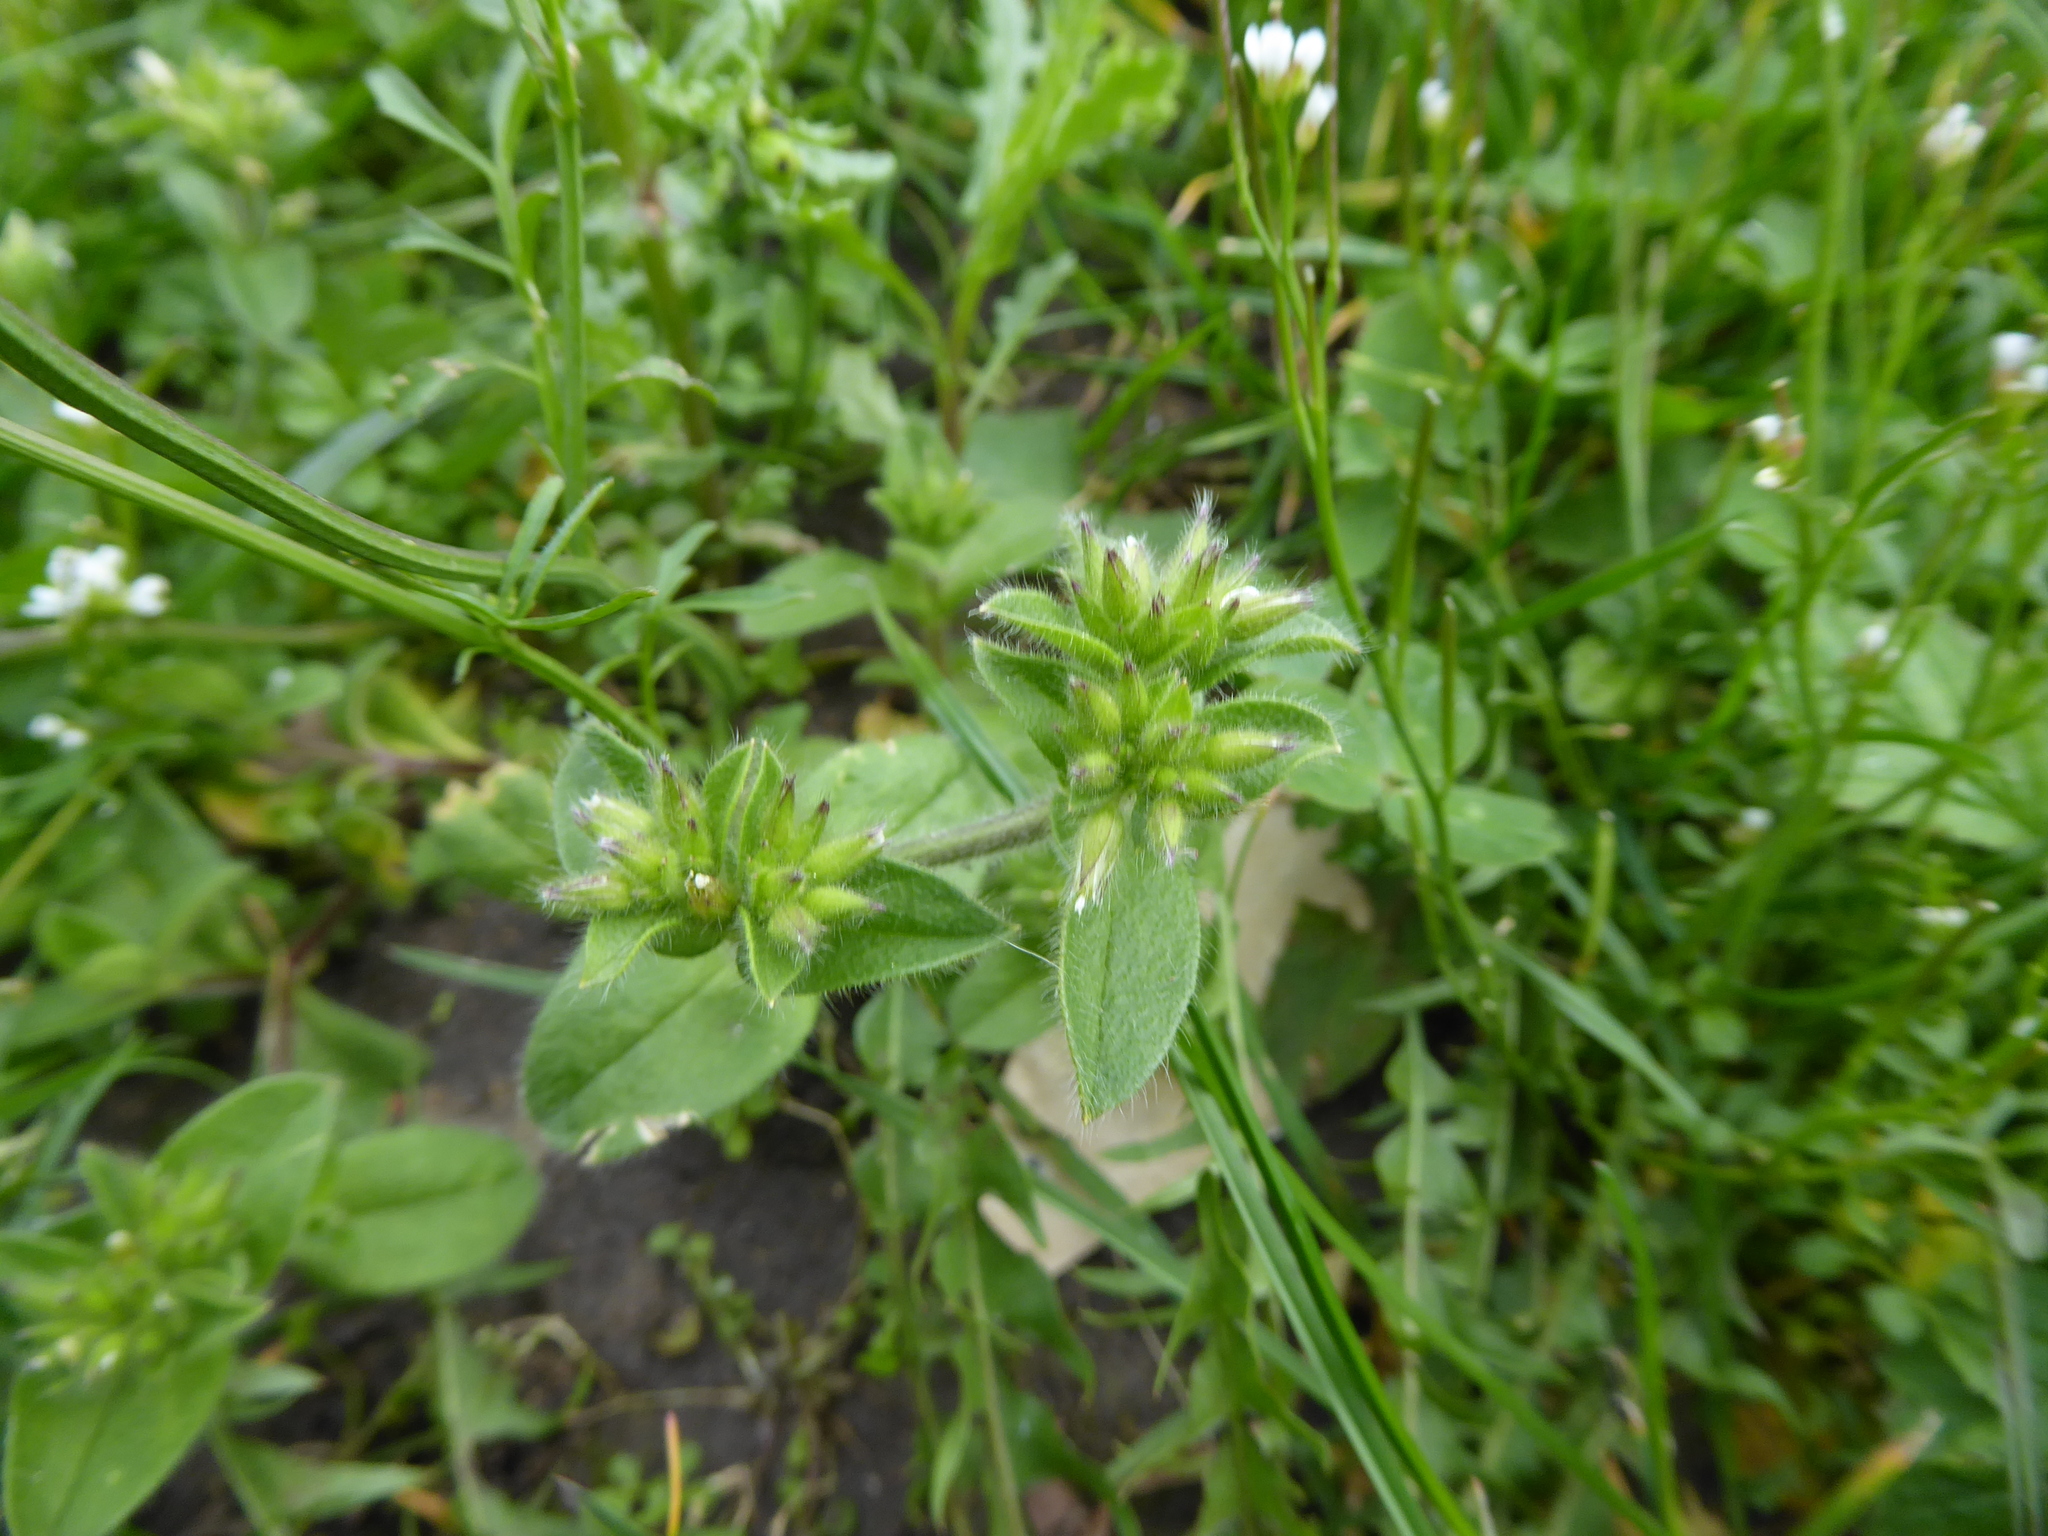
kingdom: Plantae
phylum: Tracheophyta
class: Magnoliopsida
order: Caryophyllales
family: Caryophyllaceae
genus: Cerastium
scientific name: Cerastium glomeratum
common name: Sticky chickweed
